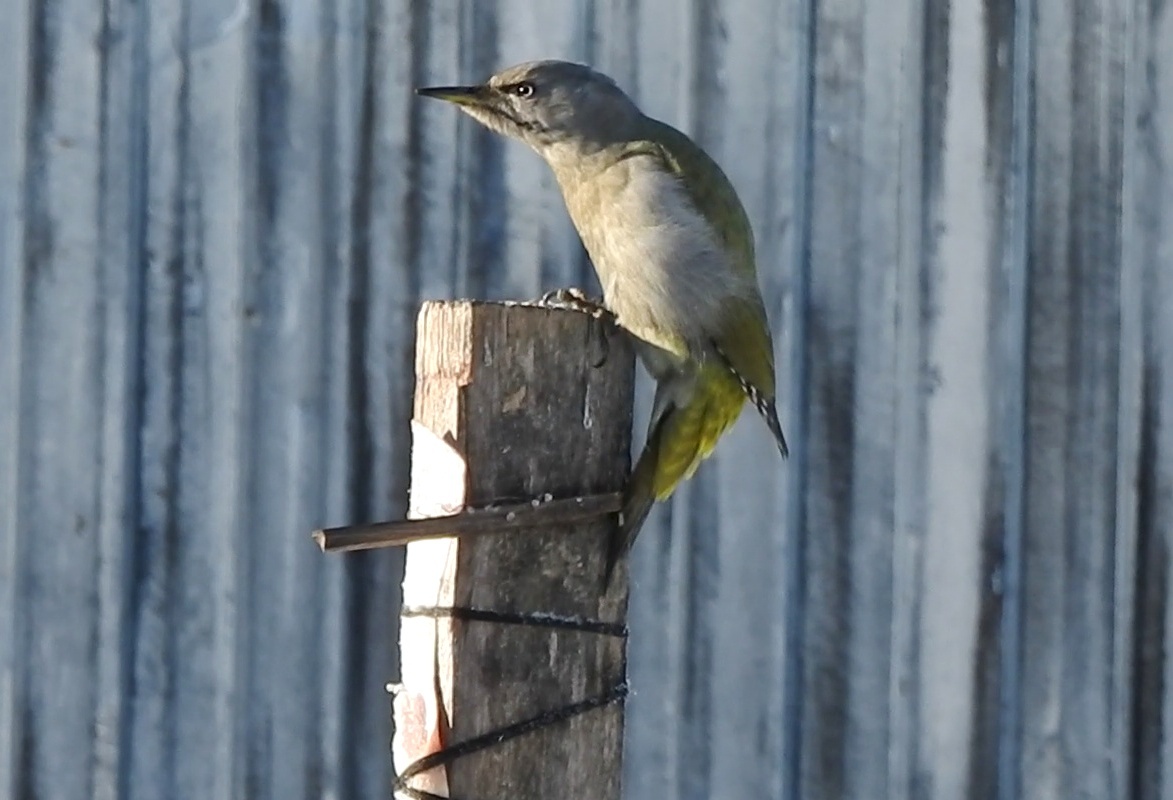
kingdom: Animalia
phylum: Chordata
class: Aves
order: Piciformes
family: Picidae
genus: Picus
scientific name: Picus canus
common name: Grey-headed woodpecker
